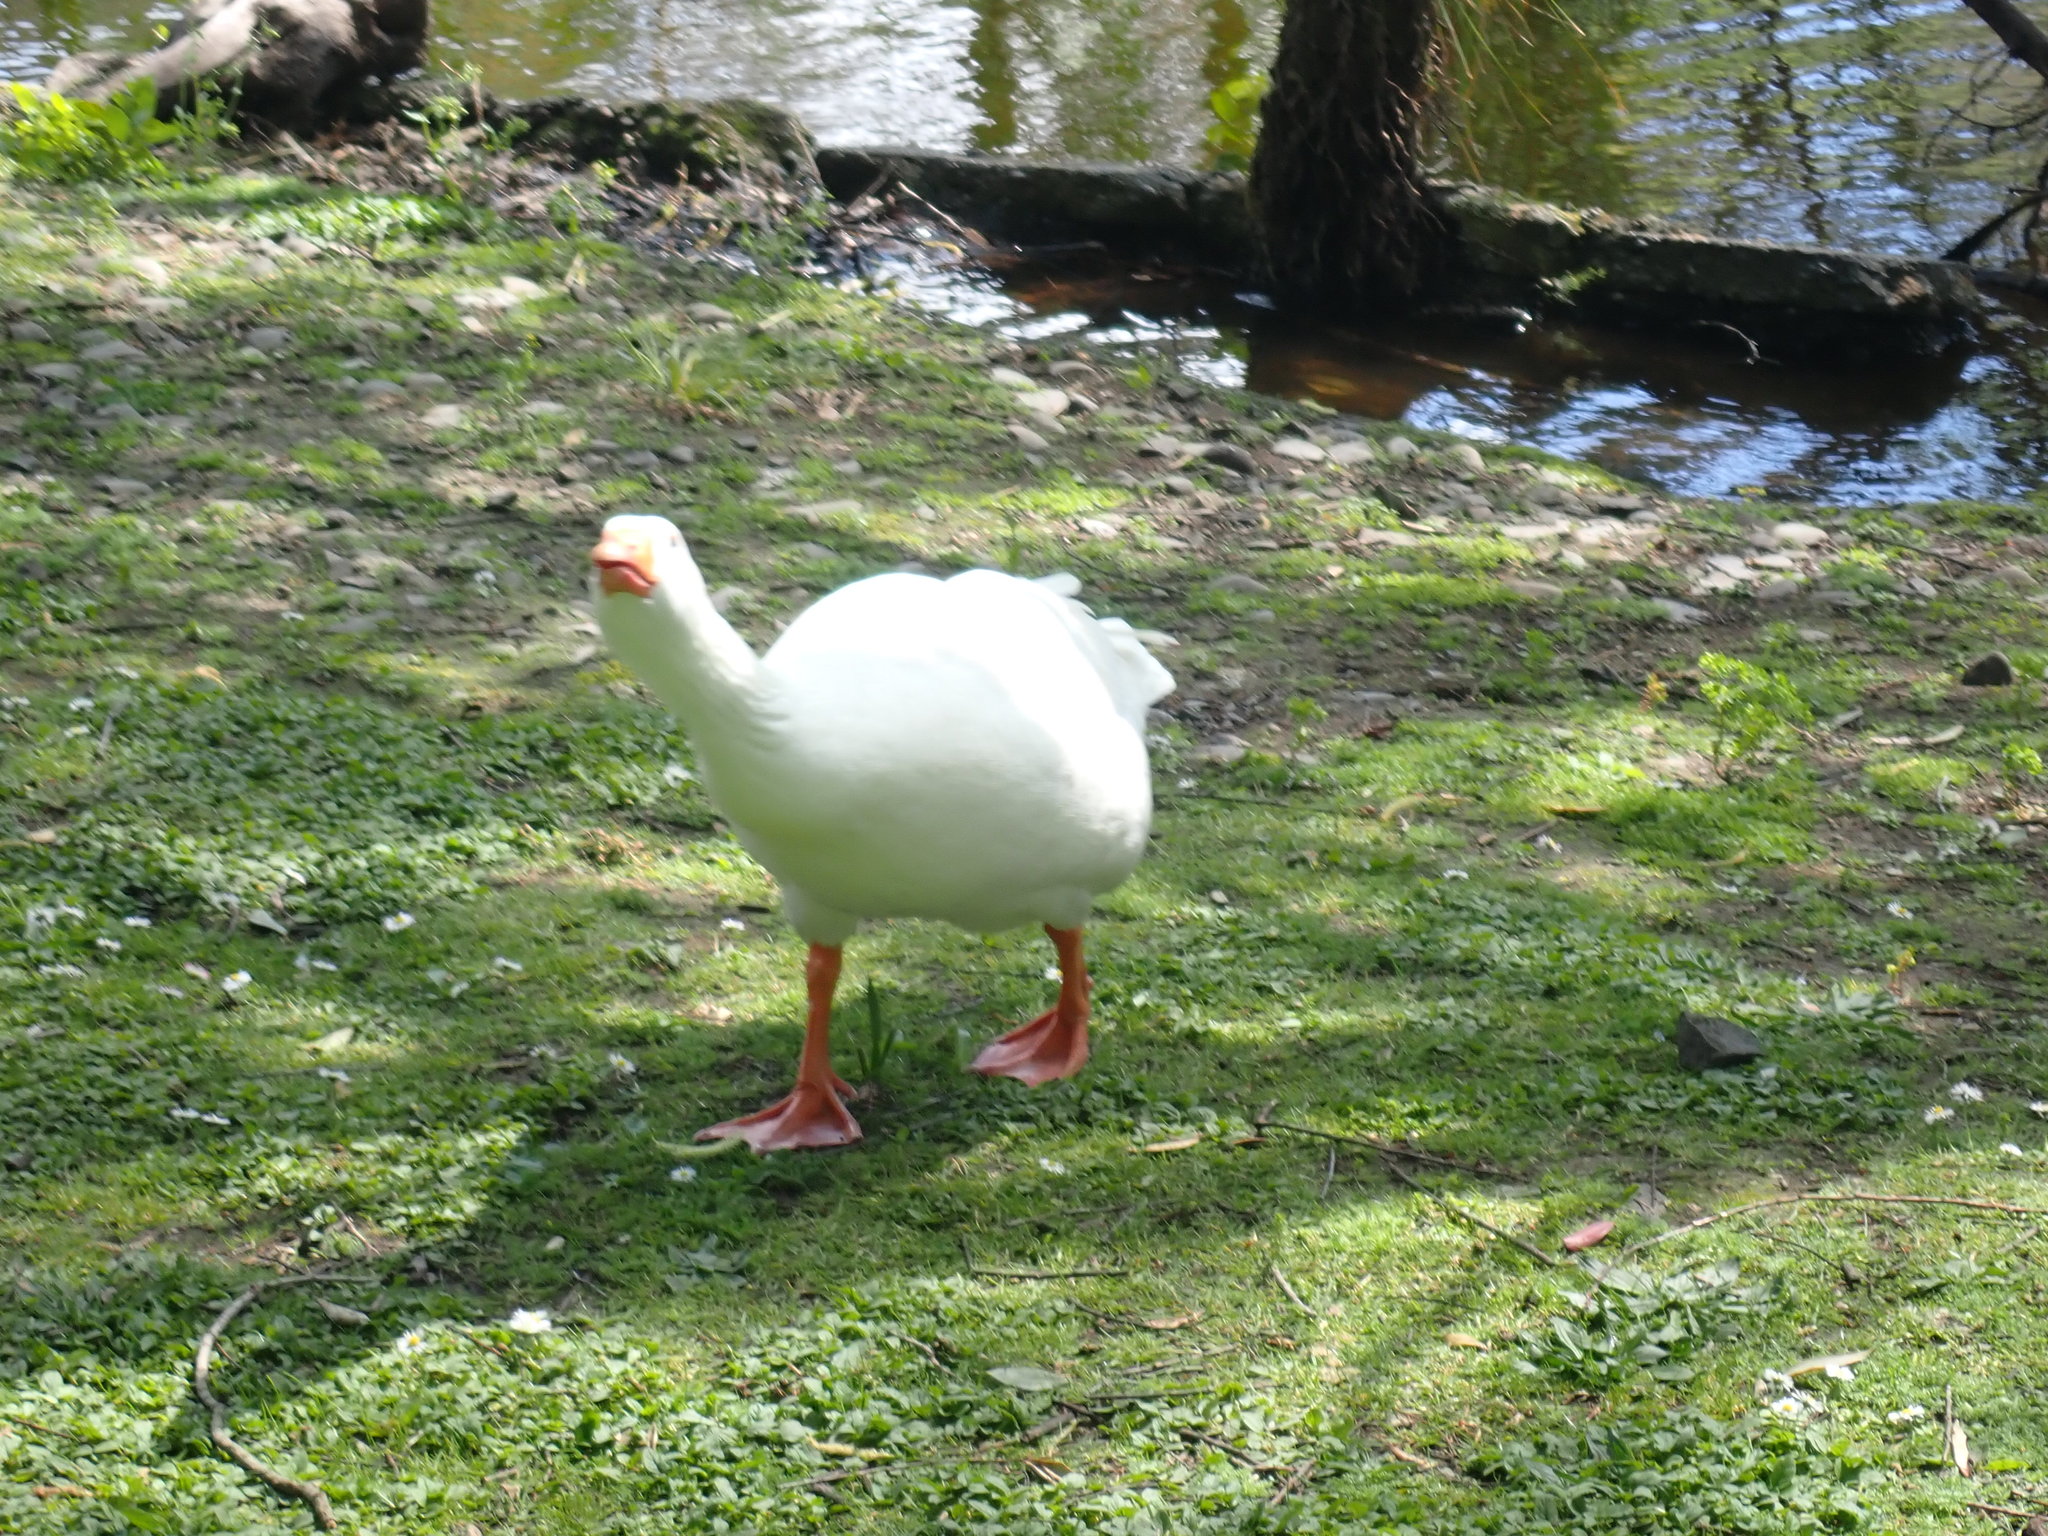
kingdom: Animalia
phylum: Chordata
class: Aves
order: Anseriformes
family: Anatidae
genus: Anser
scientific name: Anser anser
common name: Greylag goose
